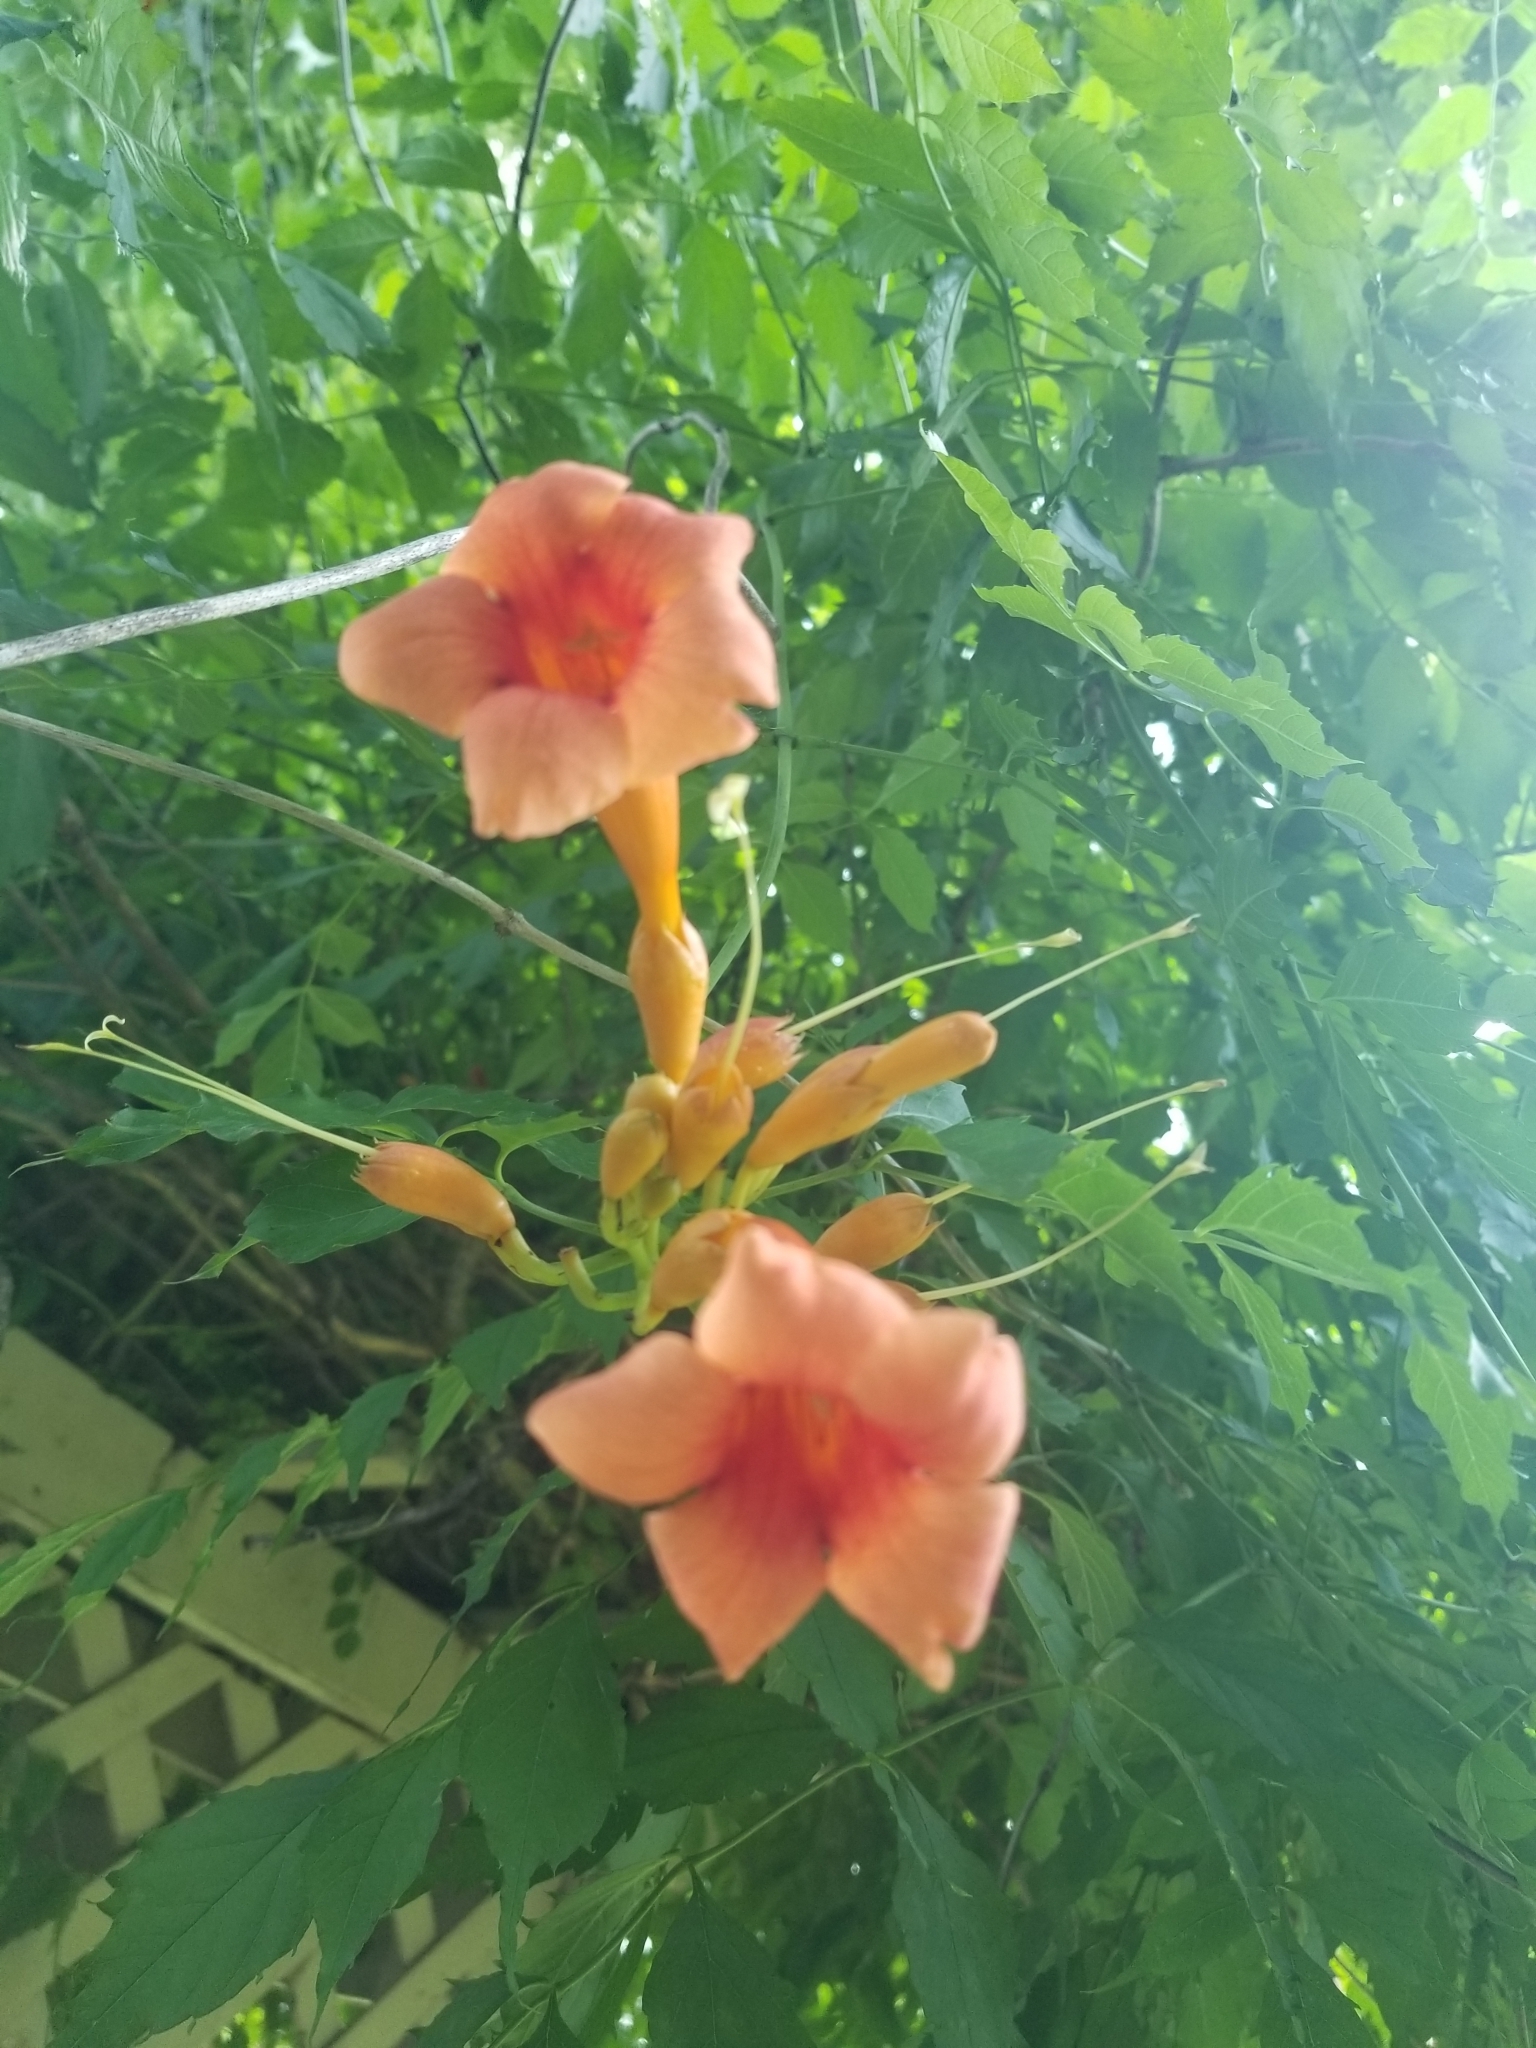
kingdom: Plantae
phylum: Tracheophyta
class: Magnoliopsida
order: Lamiales
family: Bignoniaceae
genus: Campsis
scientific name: Campsis radicans
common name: Trumpet-creeper
